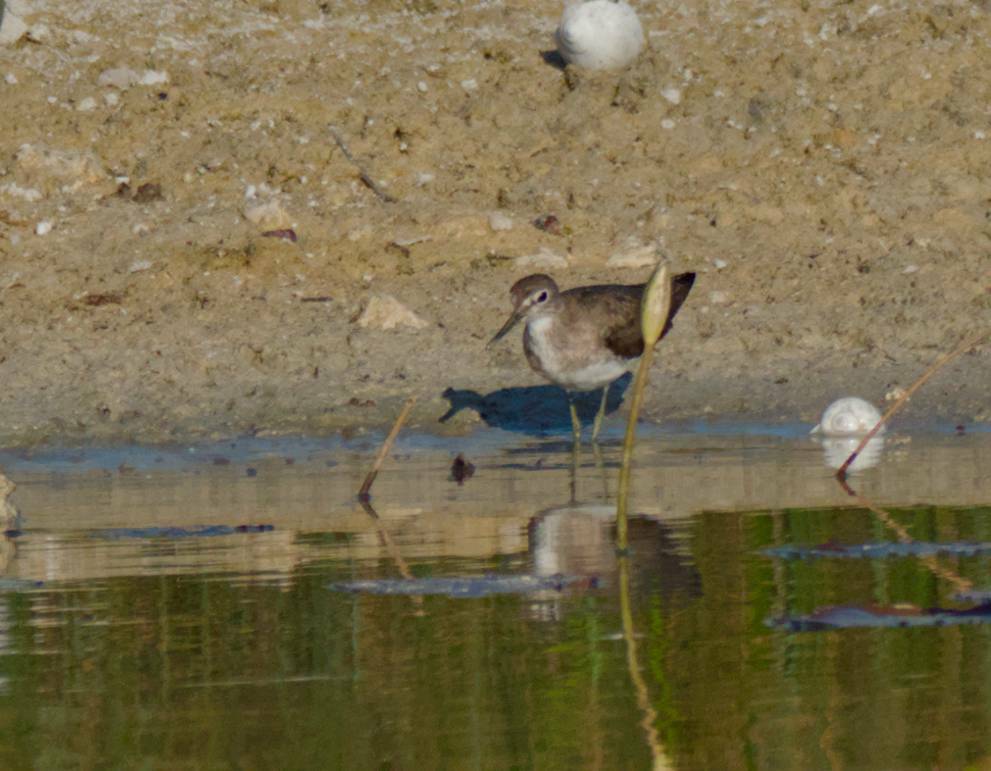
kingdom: Animalia
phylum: Chordata
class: Aves
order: Charadriiformes
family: Scolopacidae
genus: Tringa
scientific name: Tringa solitaria
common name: Solitary sandpiper
